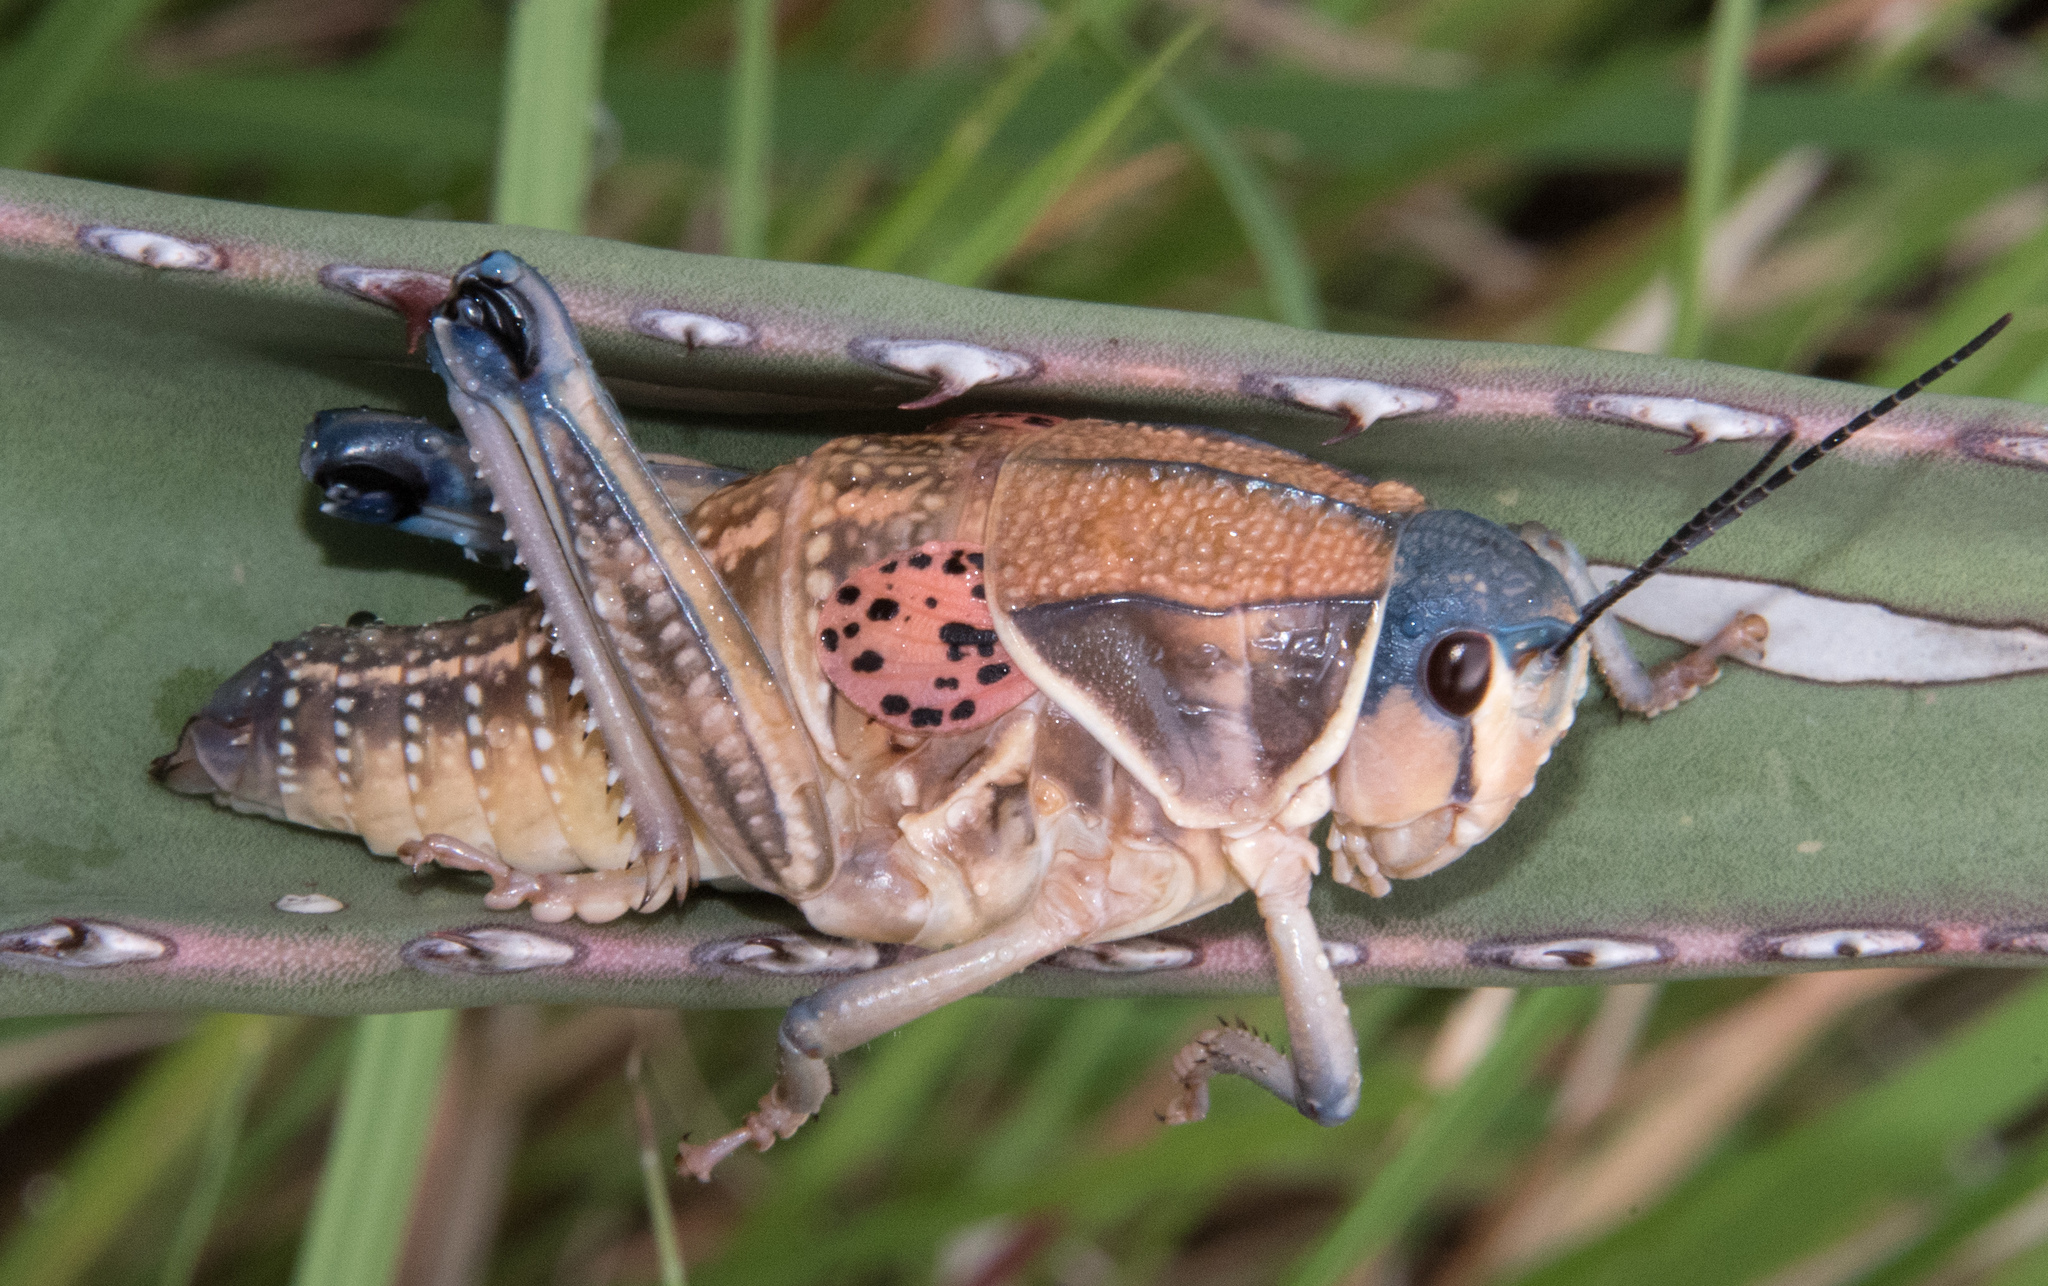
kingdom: Animalia
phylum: Arthropoda
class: Insecta
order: Orthoptera
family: Romaleidae
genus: Brachystola
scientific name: Brachystola magna
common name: Plains lubber grasshopper
